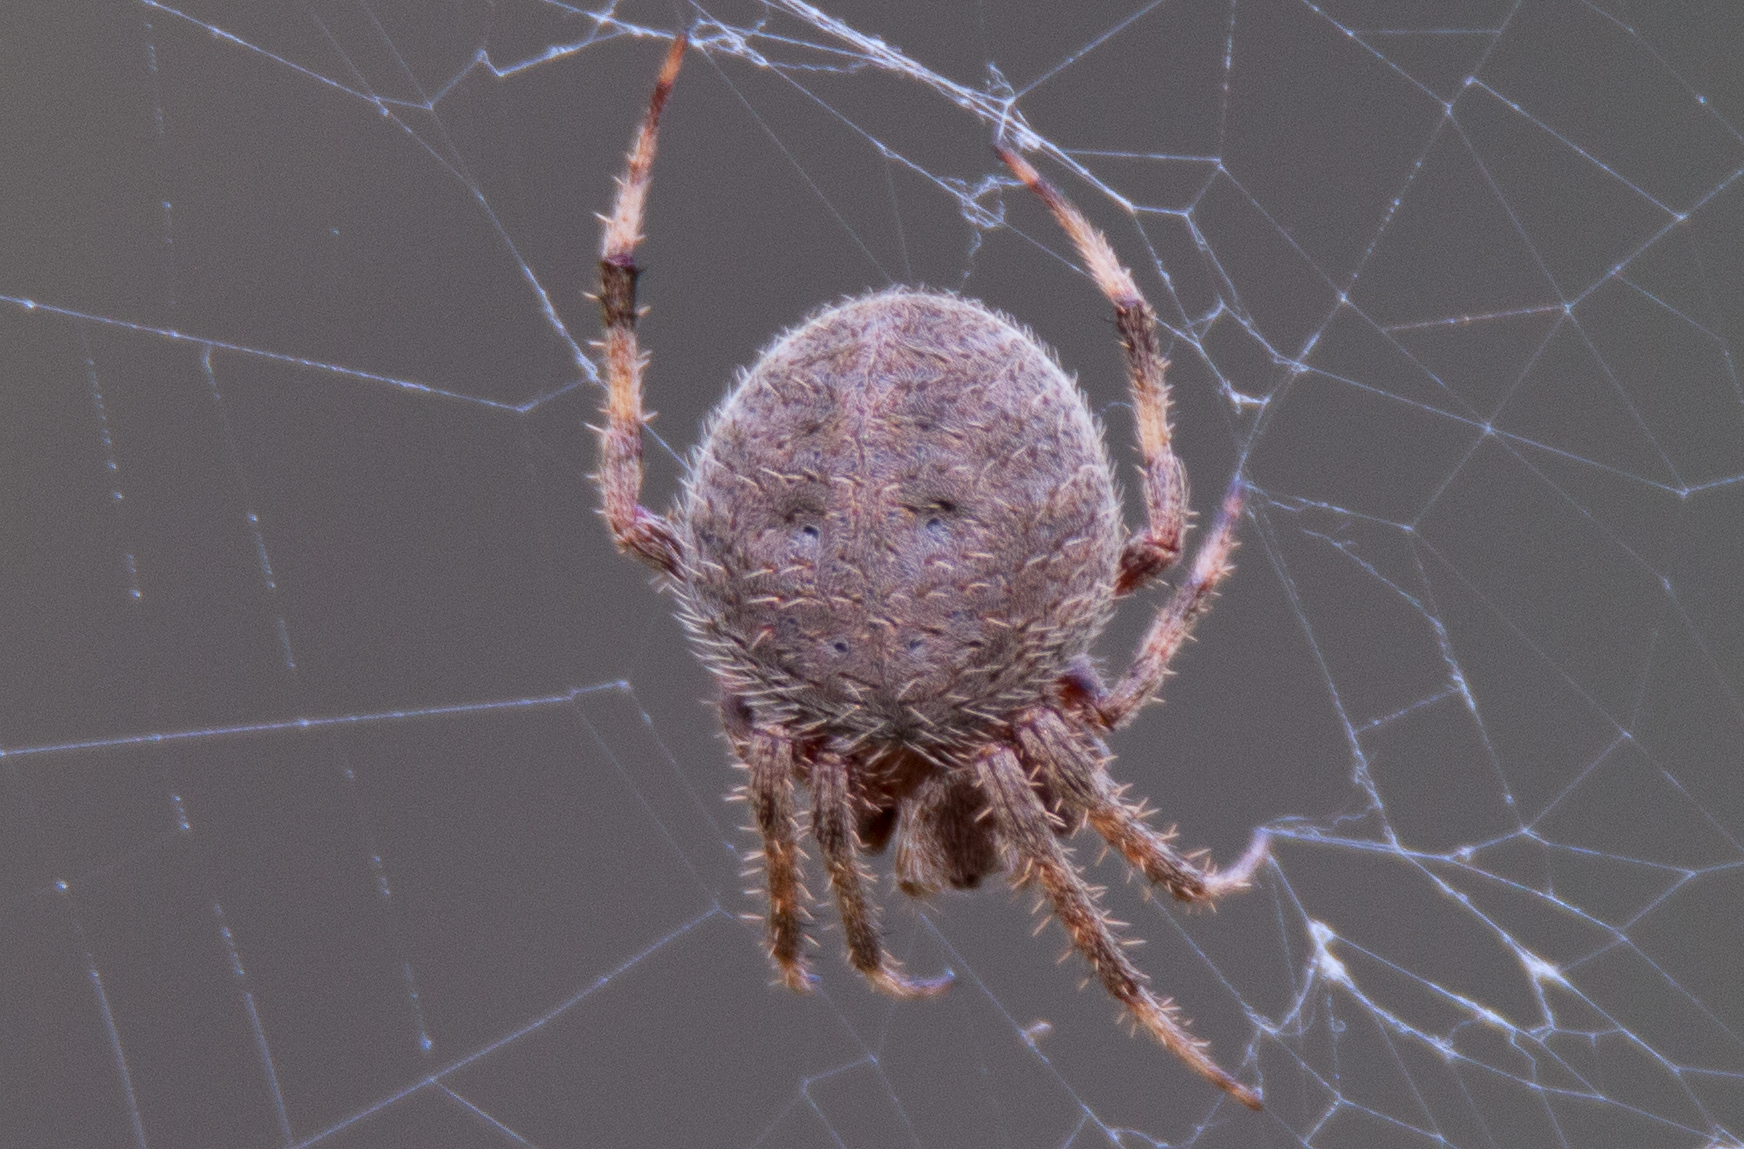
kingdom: Animalia
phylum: Arthropoda
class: Arachnida
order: Araneae
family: Araneidae
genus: Neoscona
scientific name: Neoscona crucifera
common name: Spotted orbweaver
